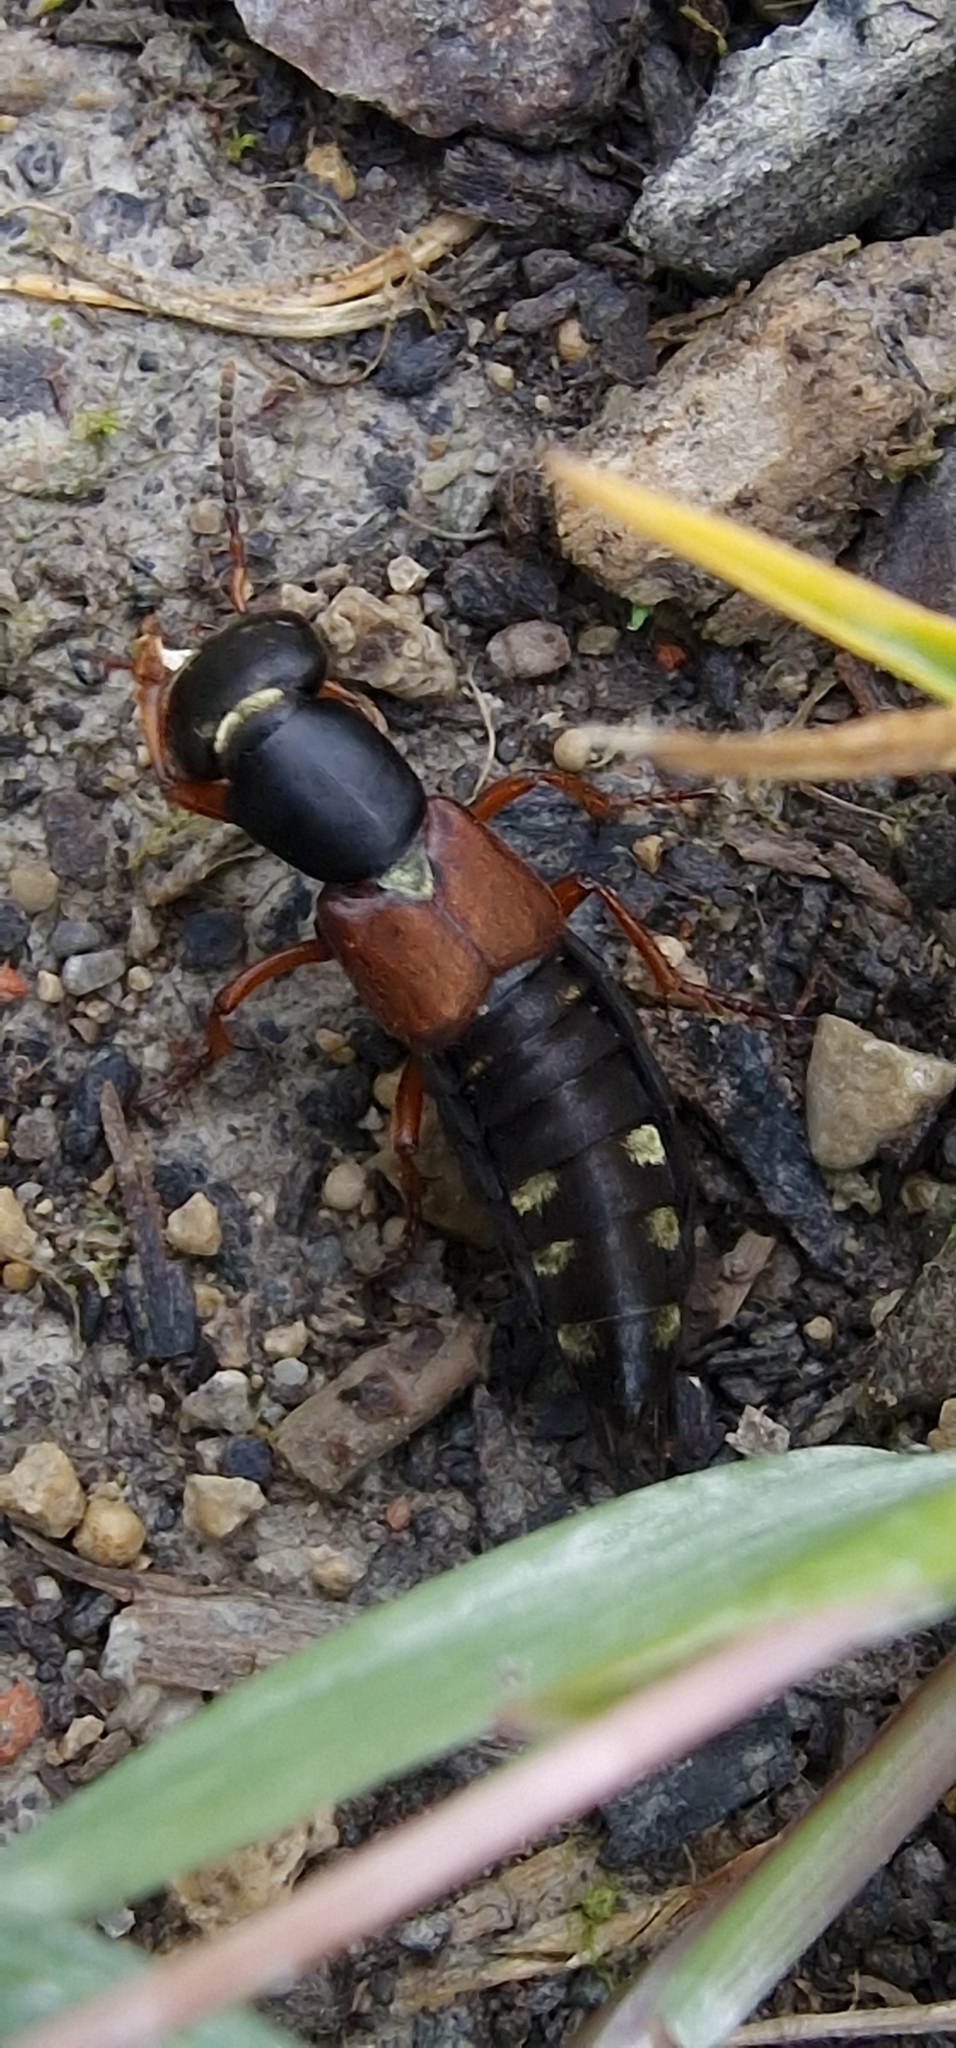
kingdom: Animalia
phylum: Arthropoda
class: Insecta
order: Coleoptera
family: Staphylinidae
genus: Staphylinus
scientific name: Staphylinus erythropterus
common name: Staph beetle
